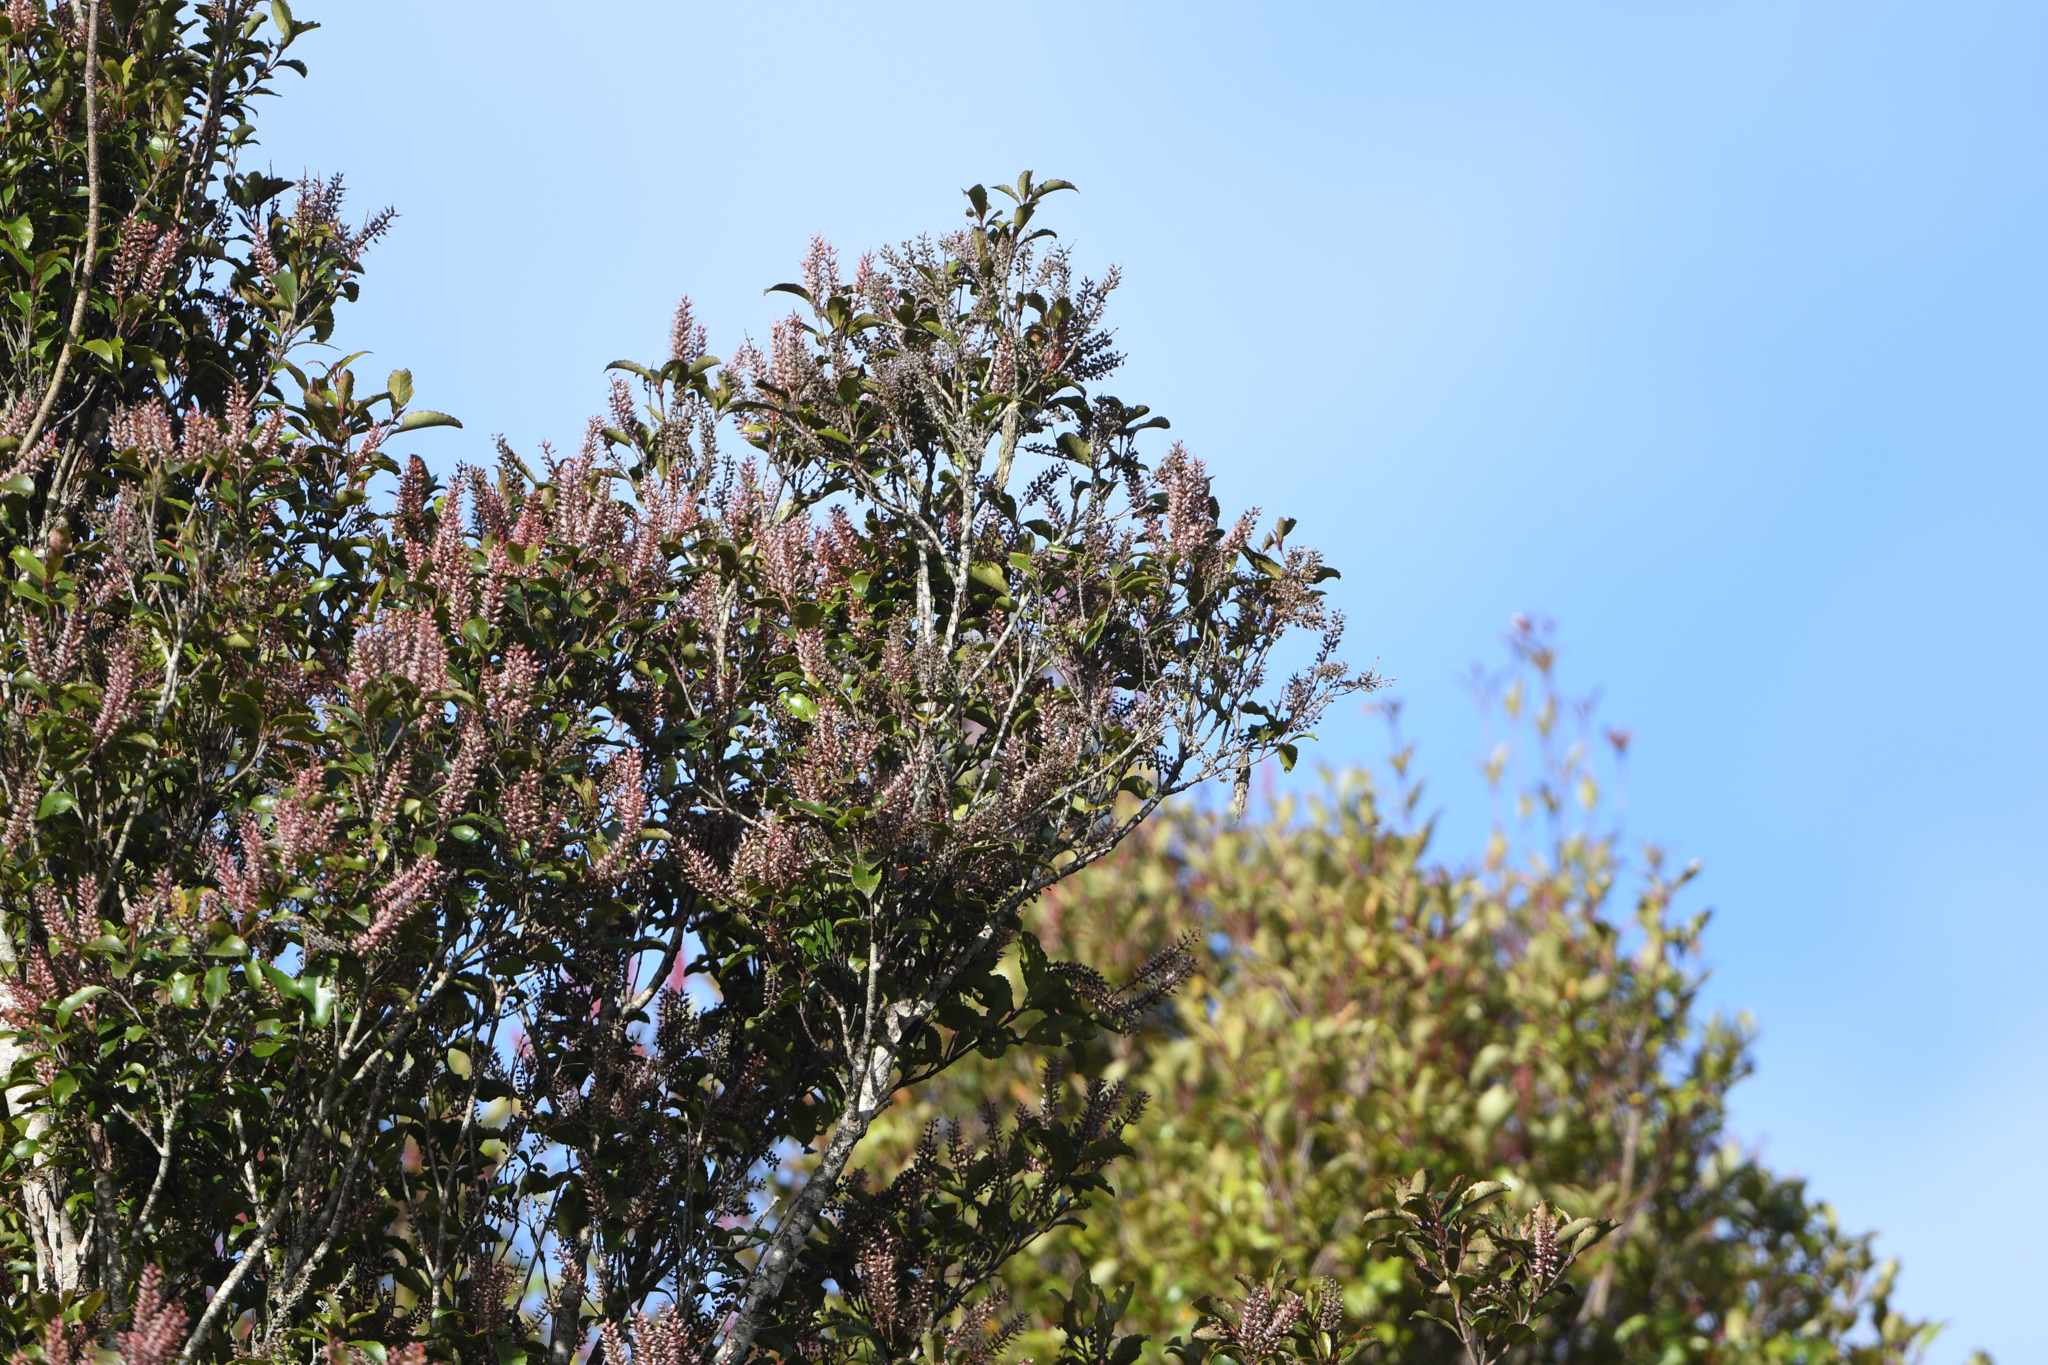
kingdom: Plantae
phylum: Tracheophyta
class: Magnoliopsida
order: Oxalidales
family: Cunoniaceae
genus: Pterophylla
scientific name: Pterophylla racemosa
